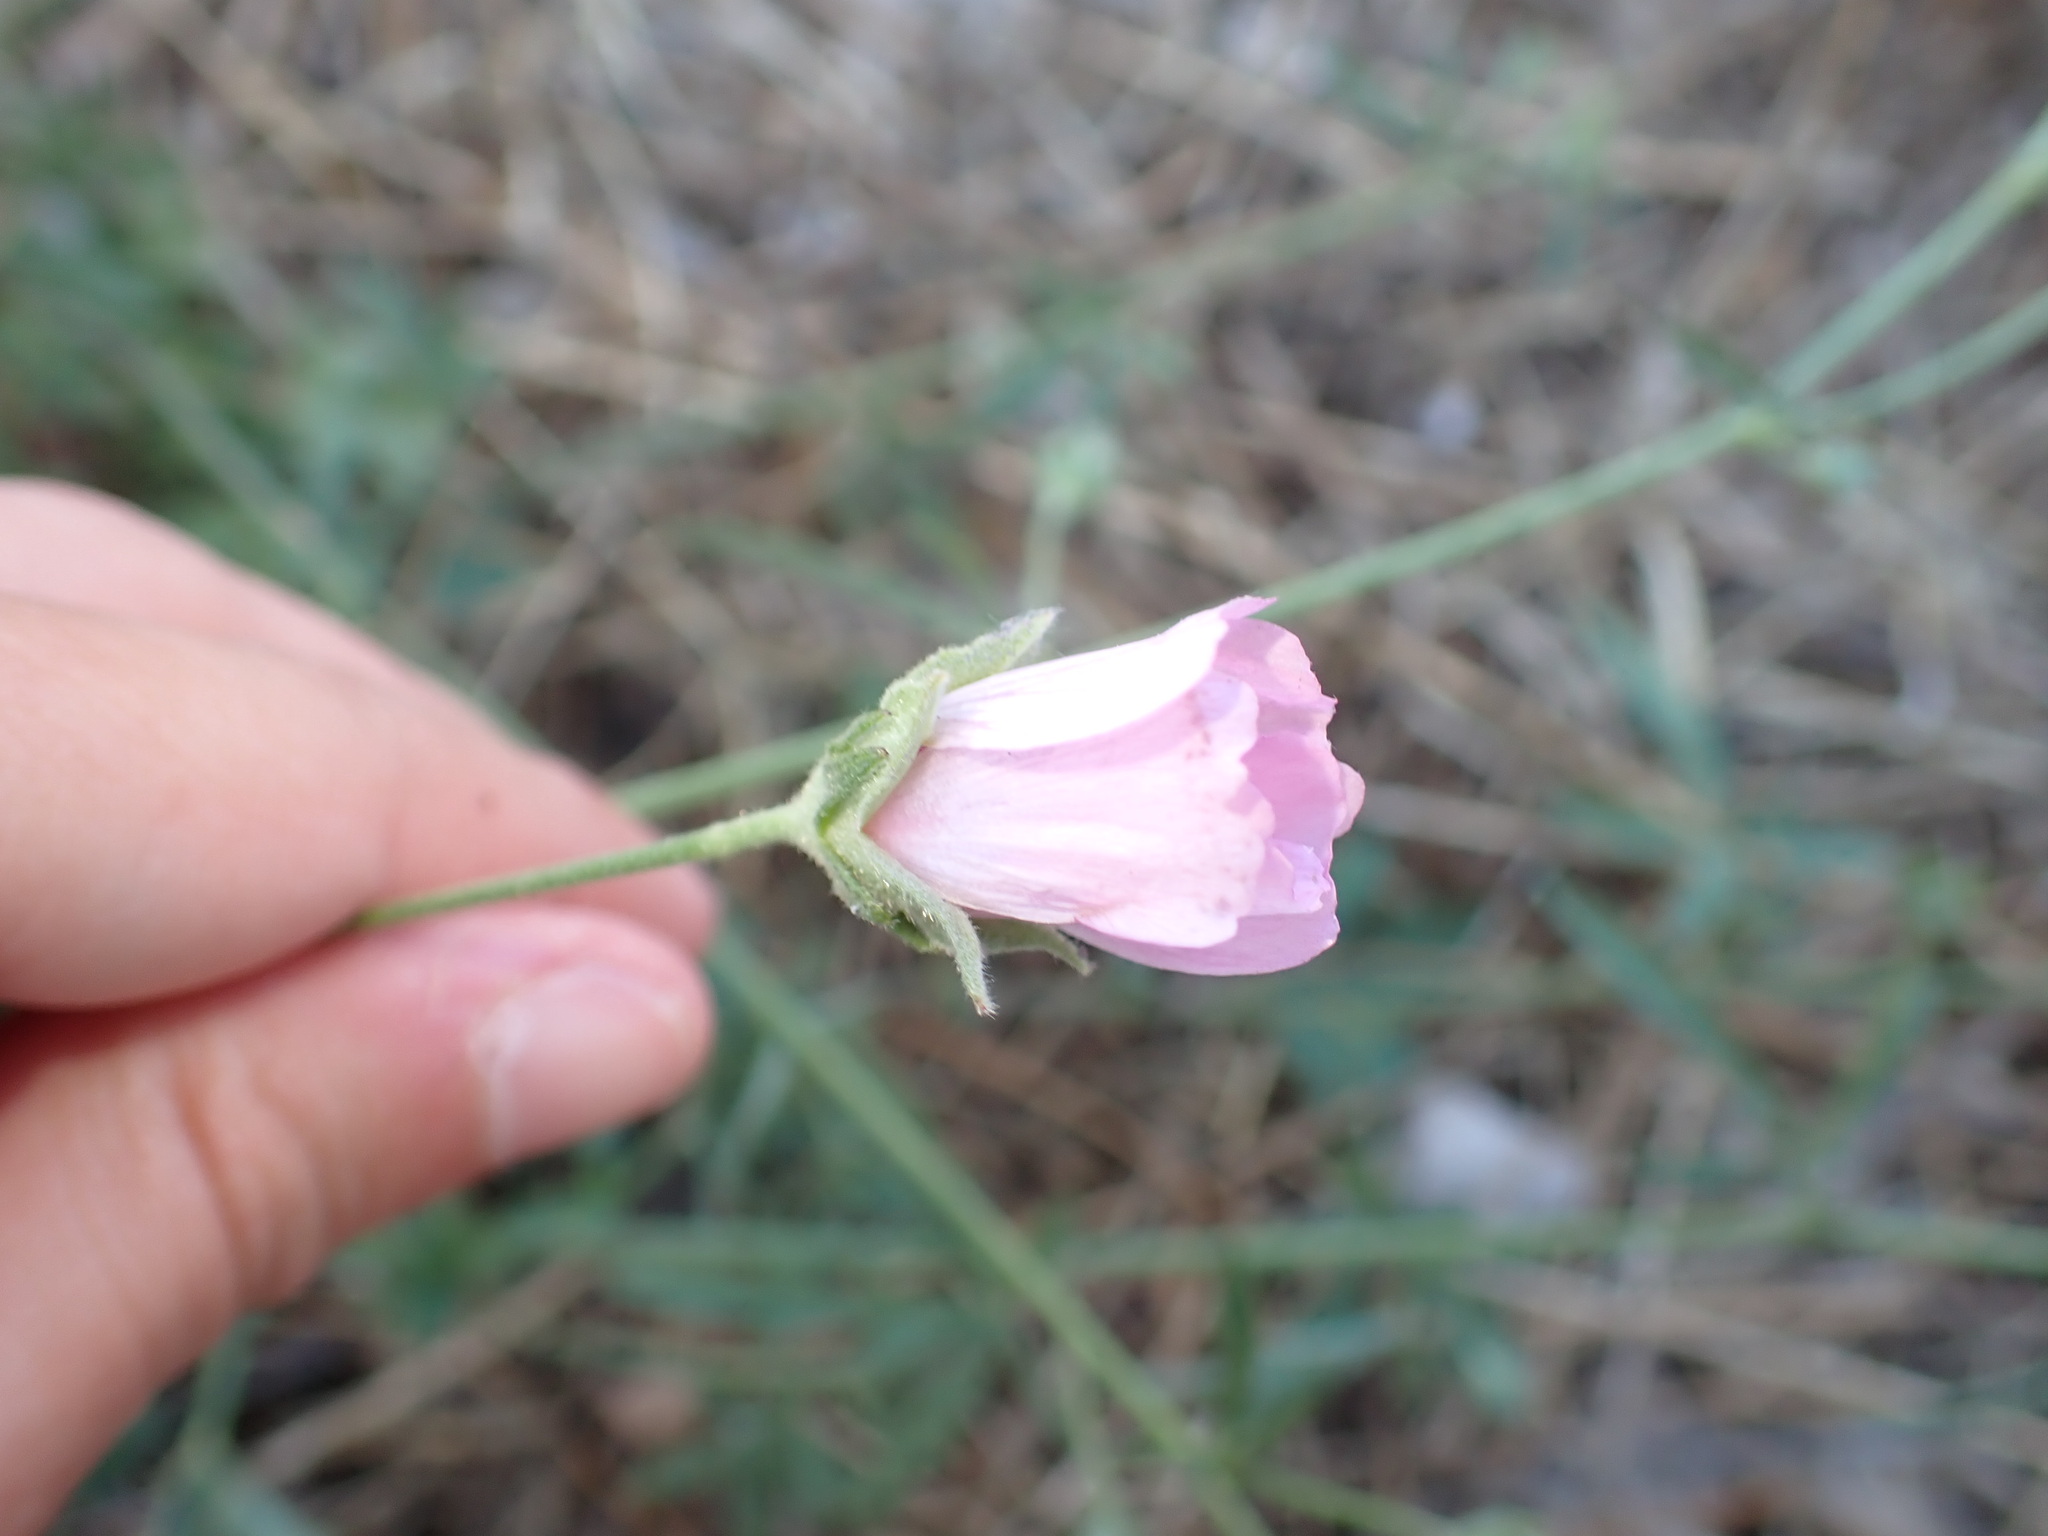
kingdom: Plantae
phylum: Tracheophyta
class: Magnoliopsida
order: Malvales
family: Malvaceae
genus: Althaea
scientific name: Althaea cannabina
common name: Palm-leaf marshmallow
